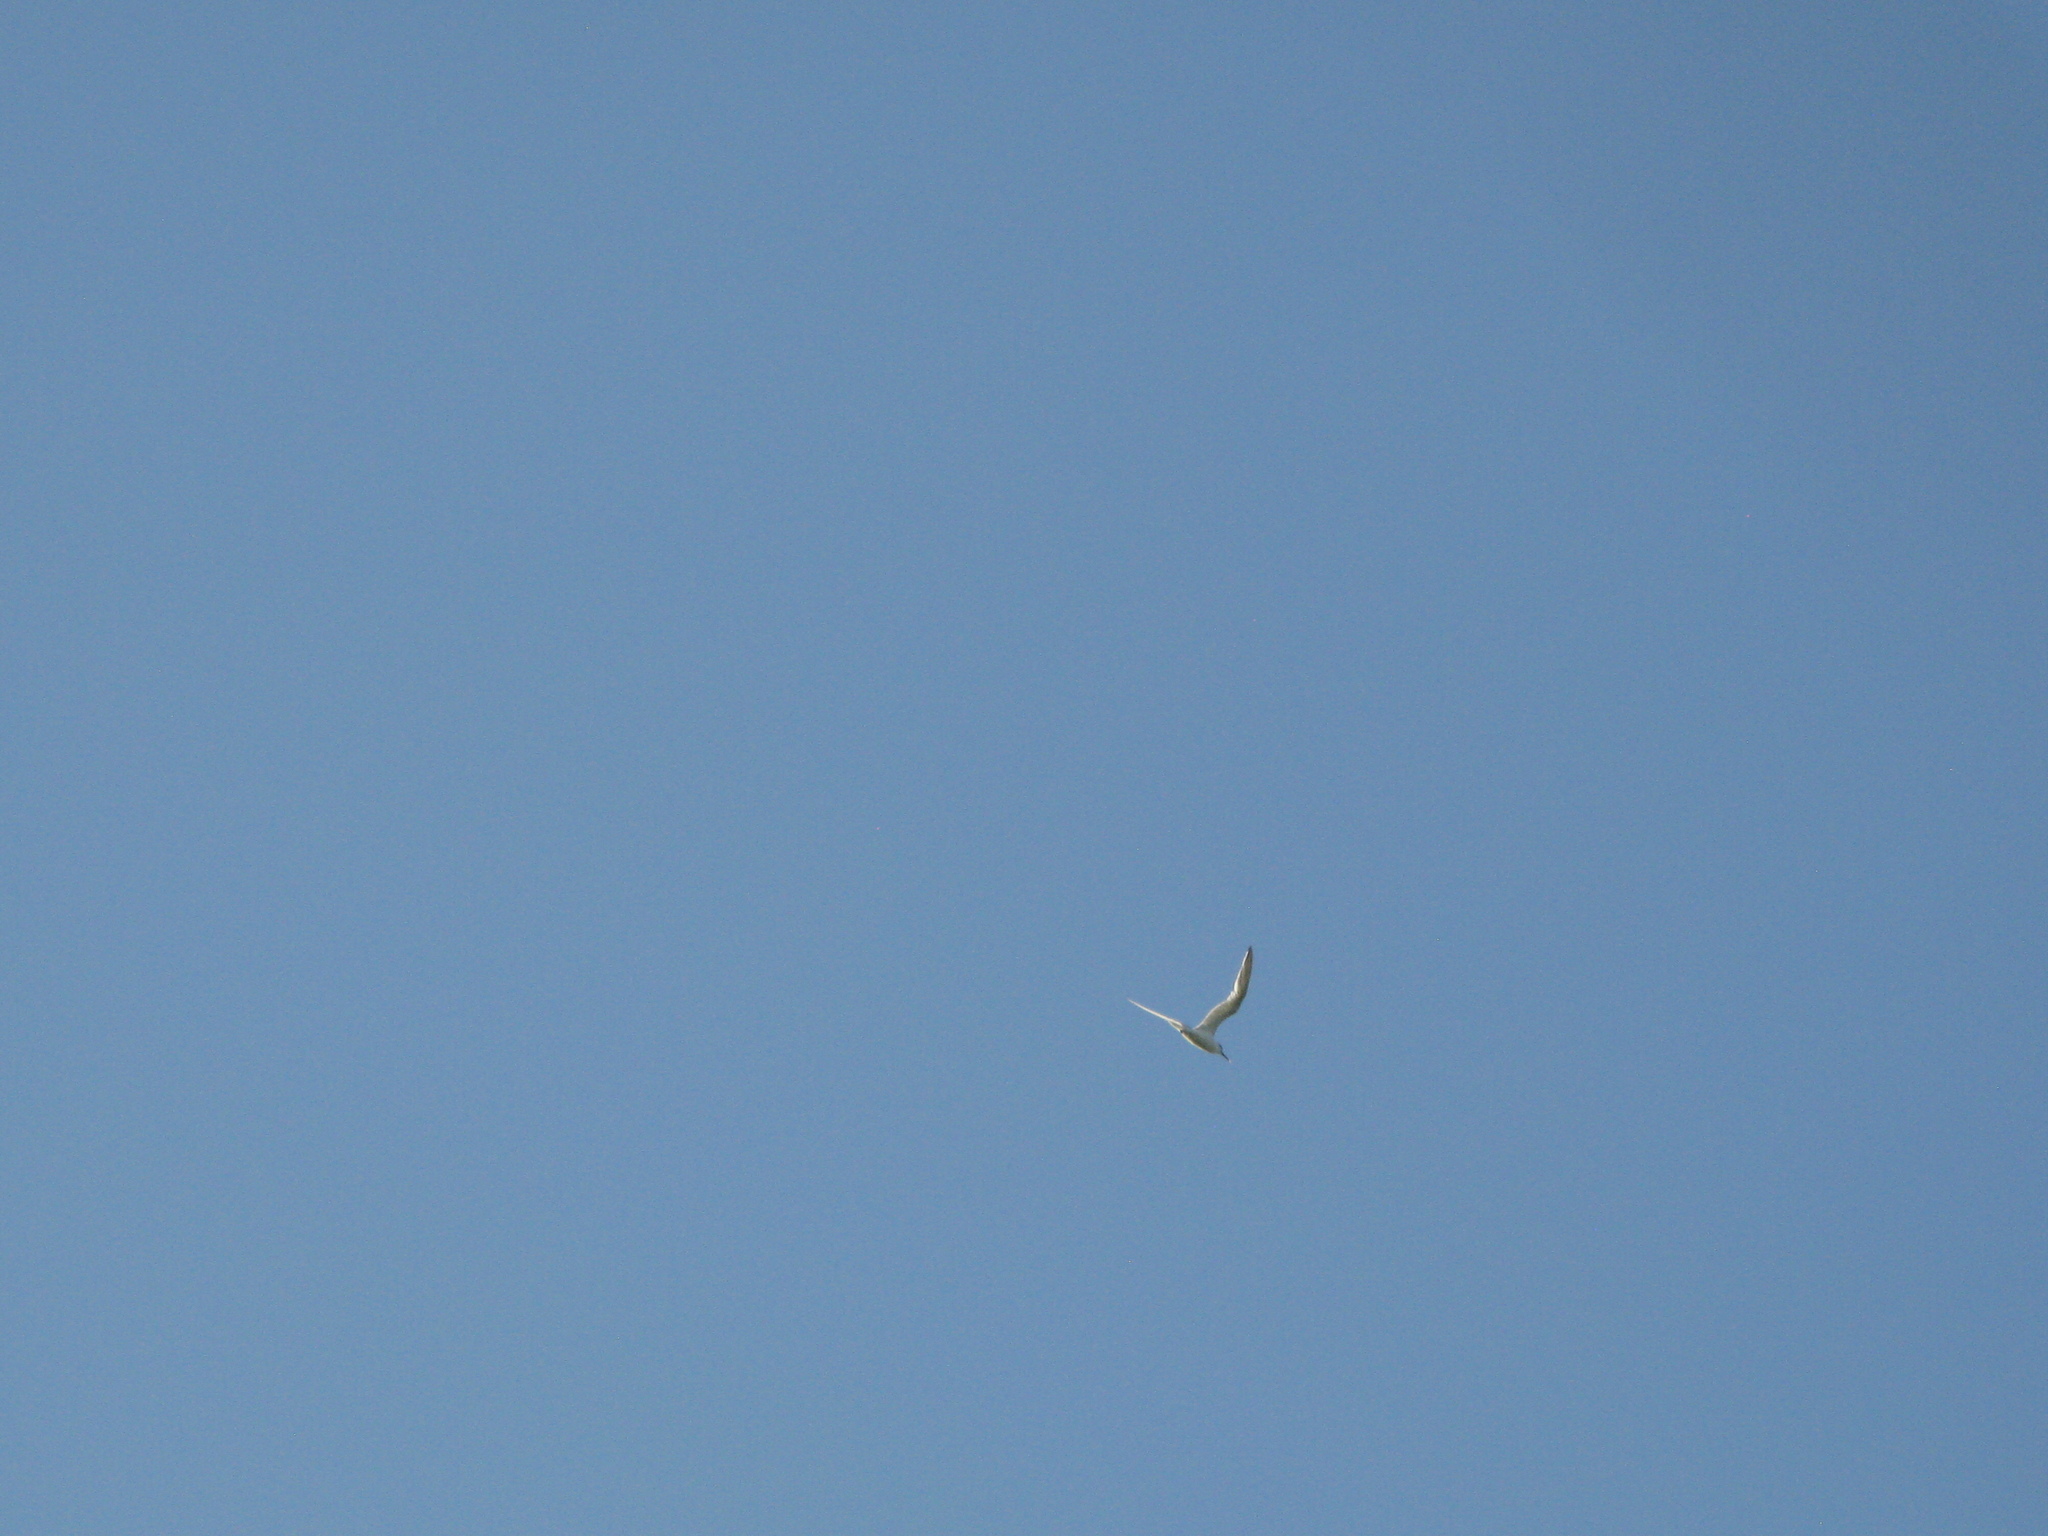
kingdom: Animalia
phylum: Chordata
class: Aves
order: Charadriiformes
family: Laridae
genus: Thalasseus
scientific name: Thalasseus sandvicensis
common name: Sandwich tern
